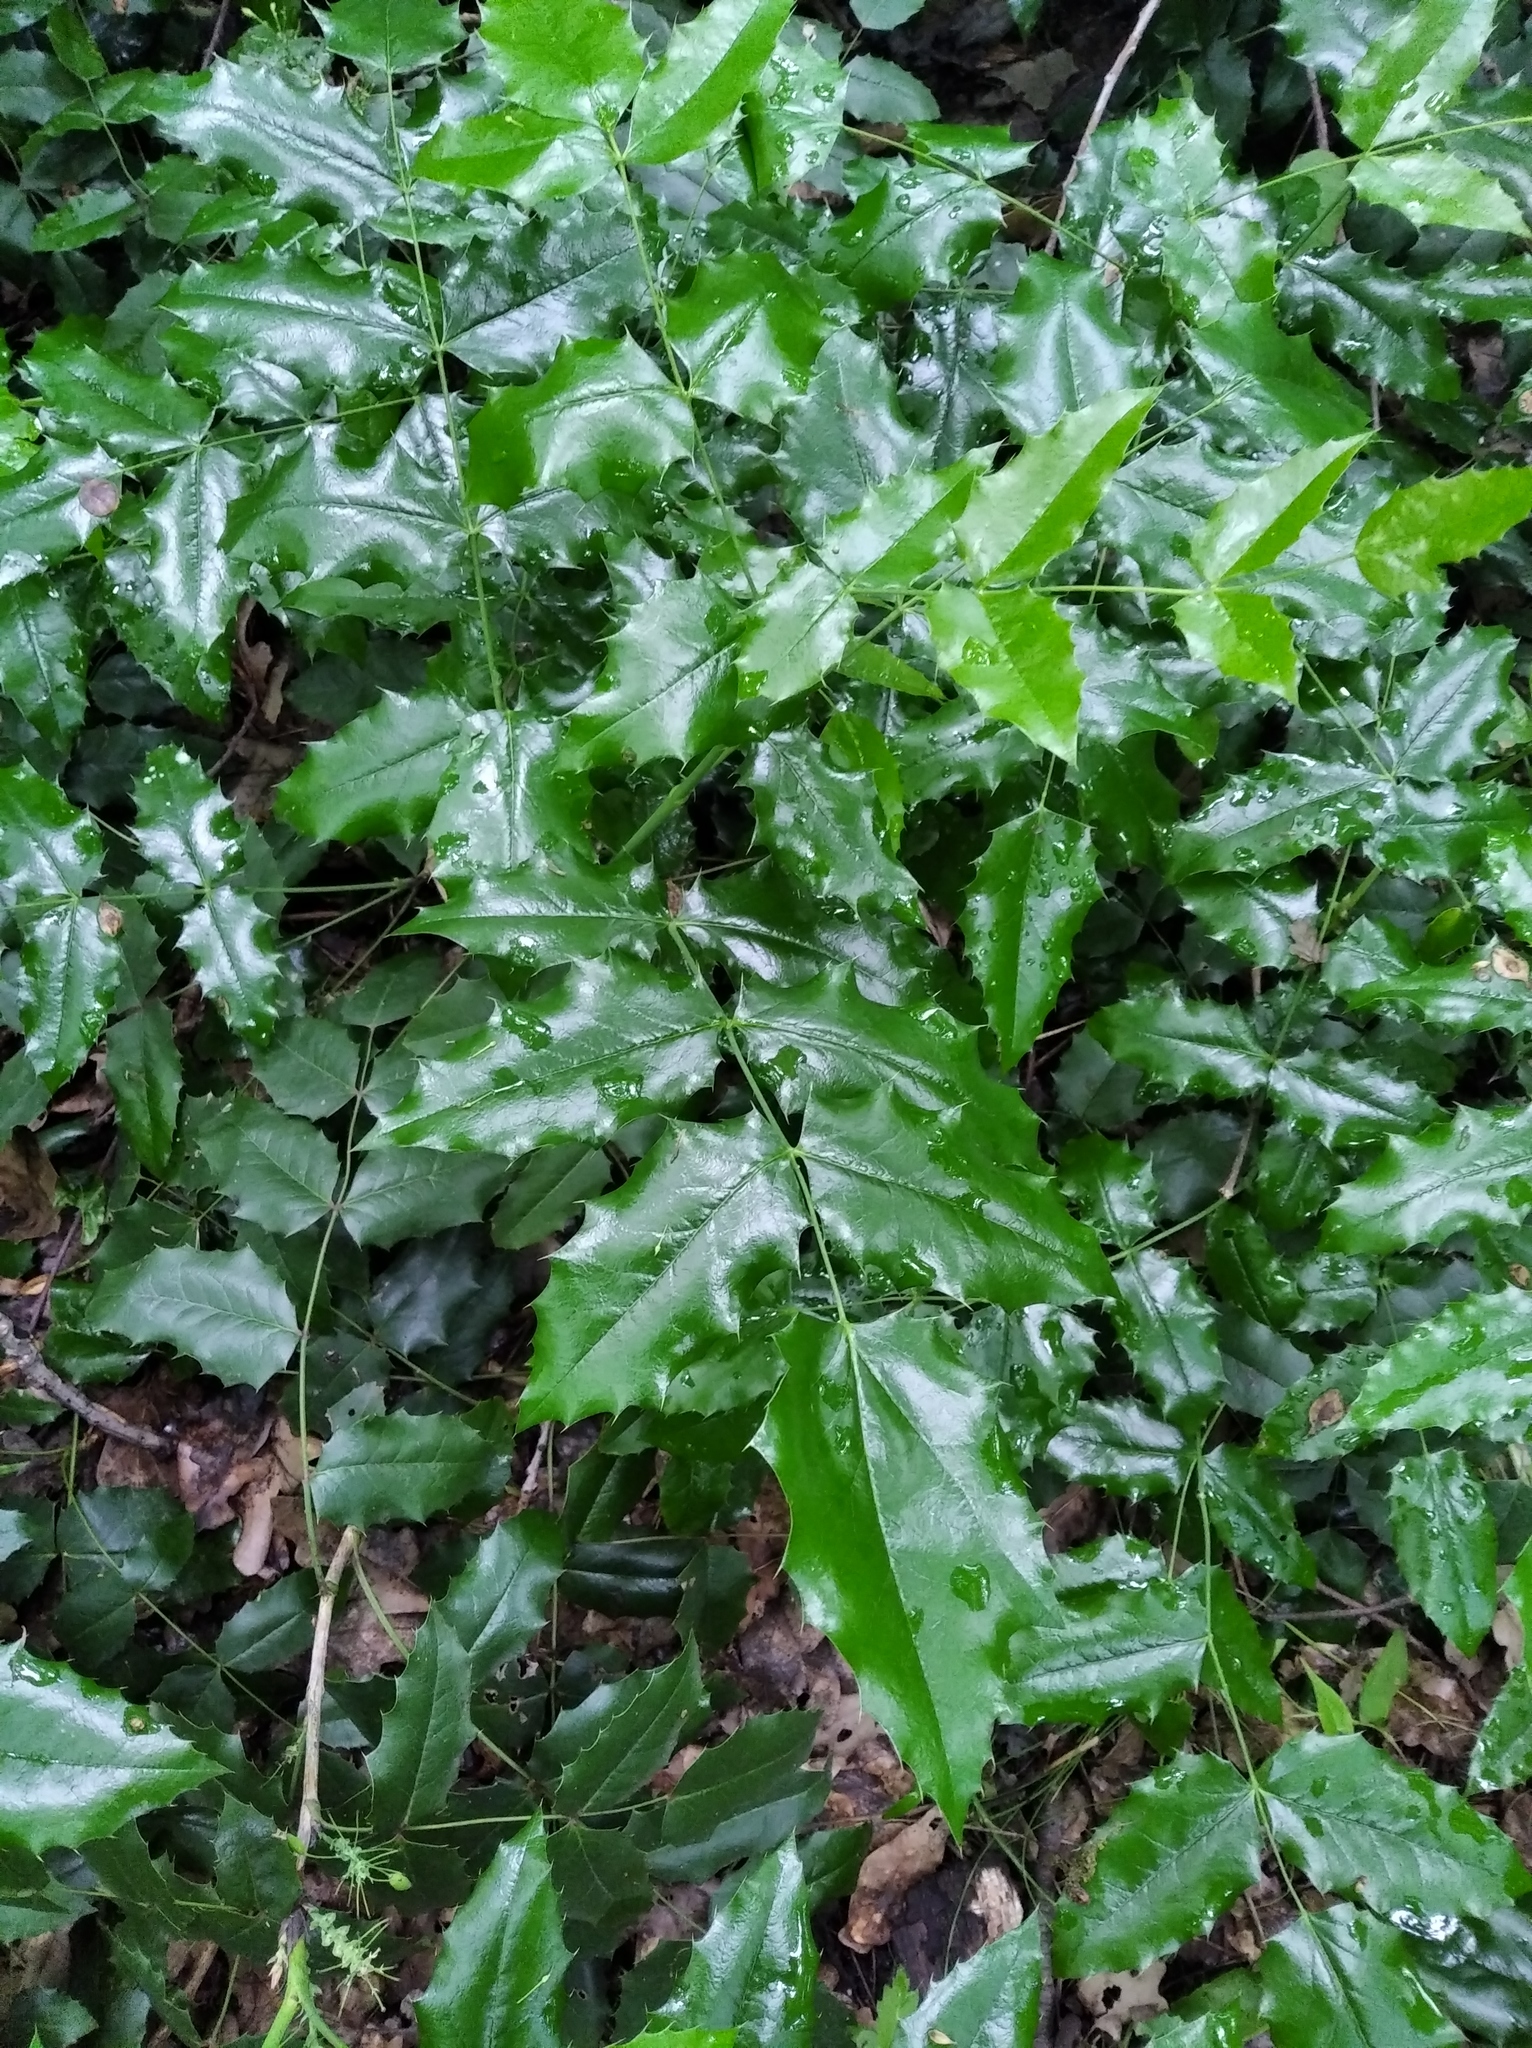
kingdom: Plantae
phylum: Tracheophyta
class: Magnoliopsida
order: Ranunculales
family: Berberidaceae
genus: Mahonia
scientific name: Mahonia aquifolium
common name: Oregon-grape
